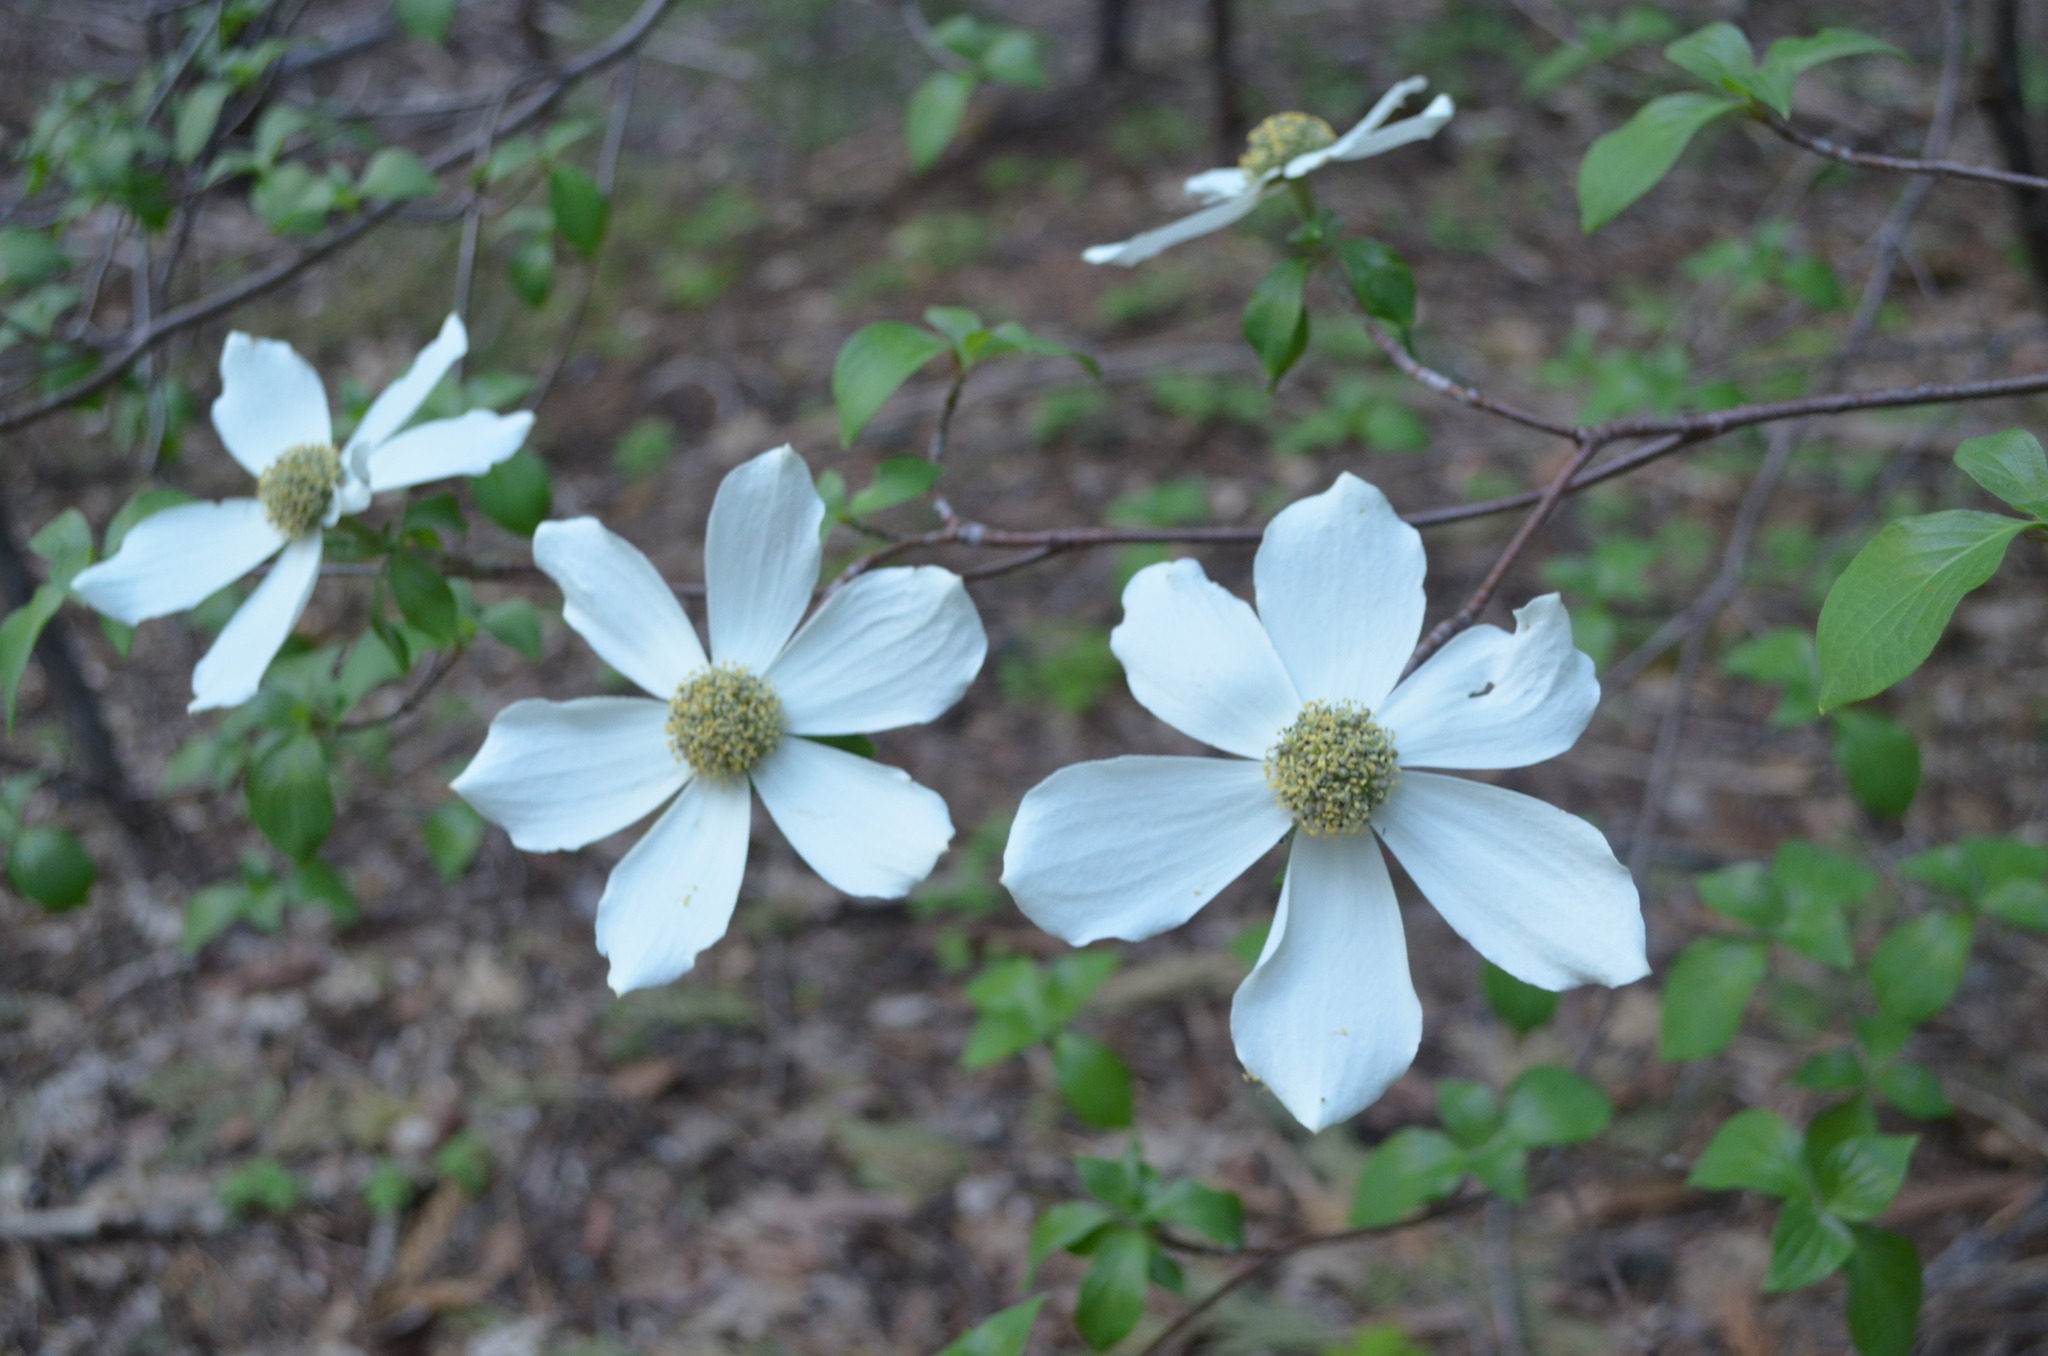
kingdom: Plantae
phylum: Tracheophyta
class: Magnoliopsida
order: Cornales
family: Cornaceae
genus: Cornus
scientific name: Cornus nuttallii
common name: Pacific dogwood
